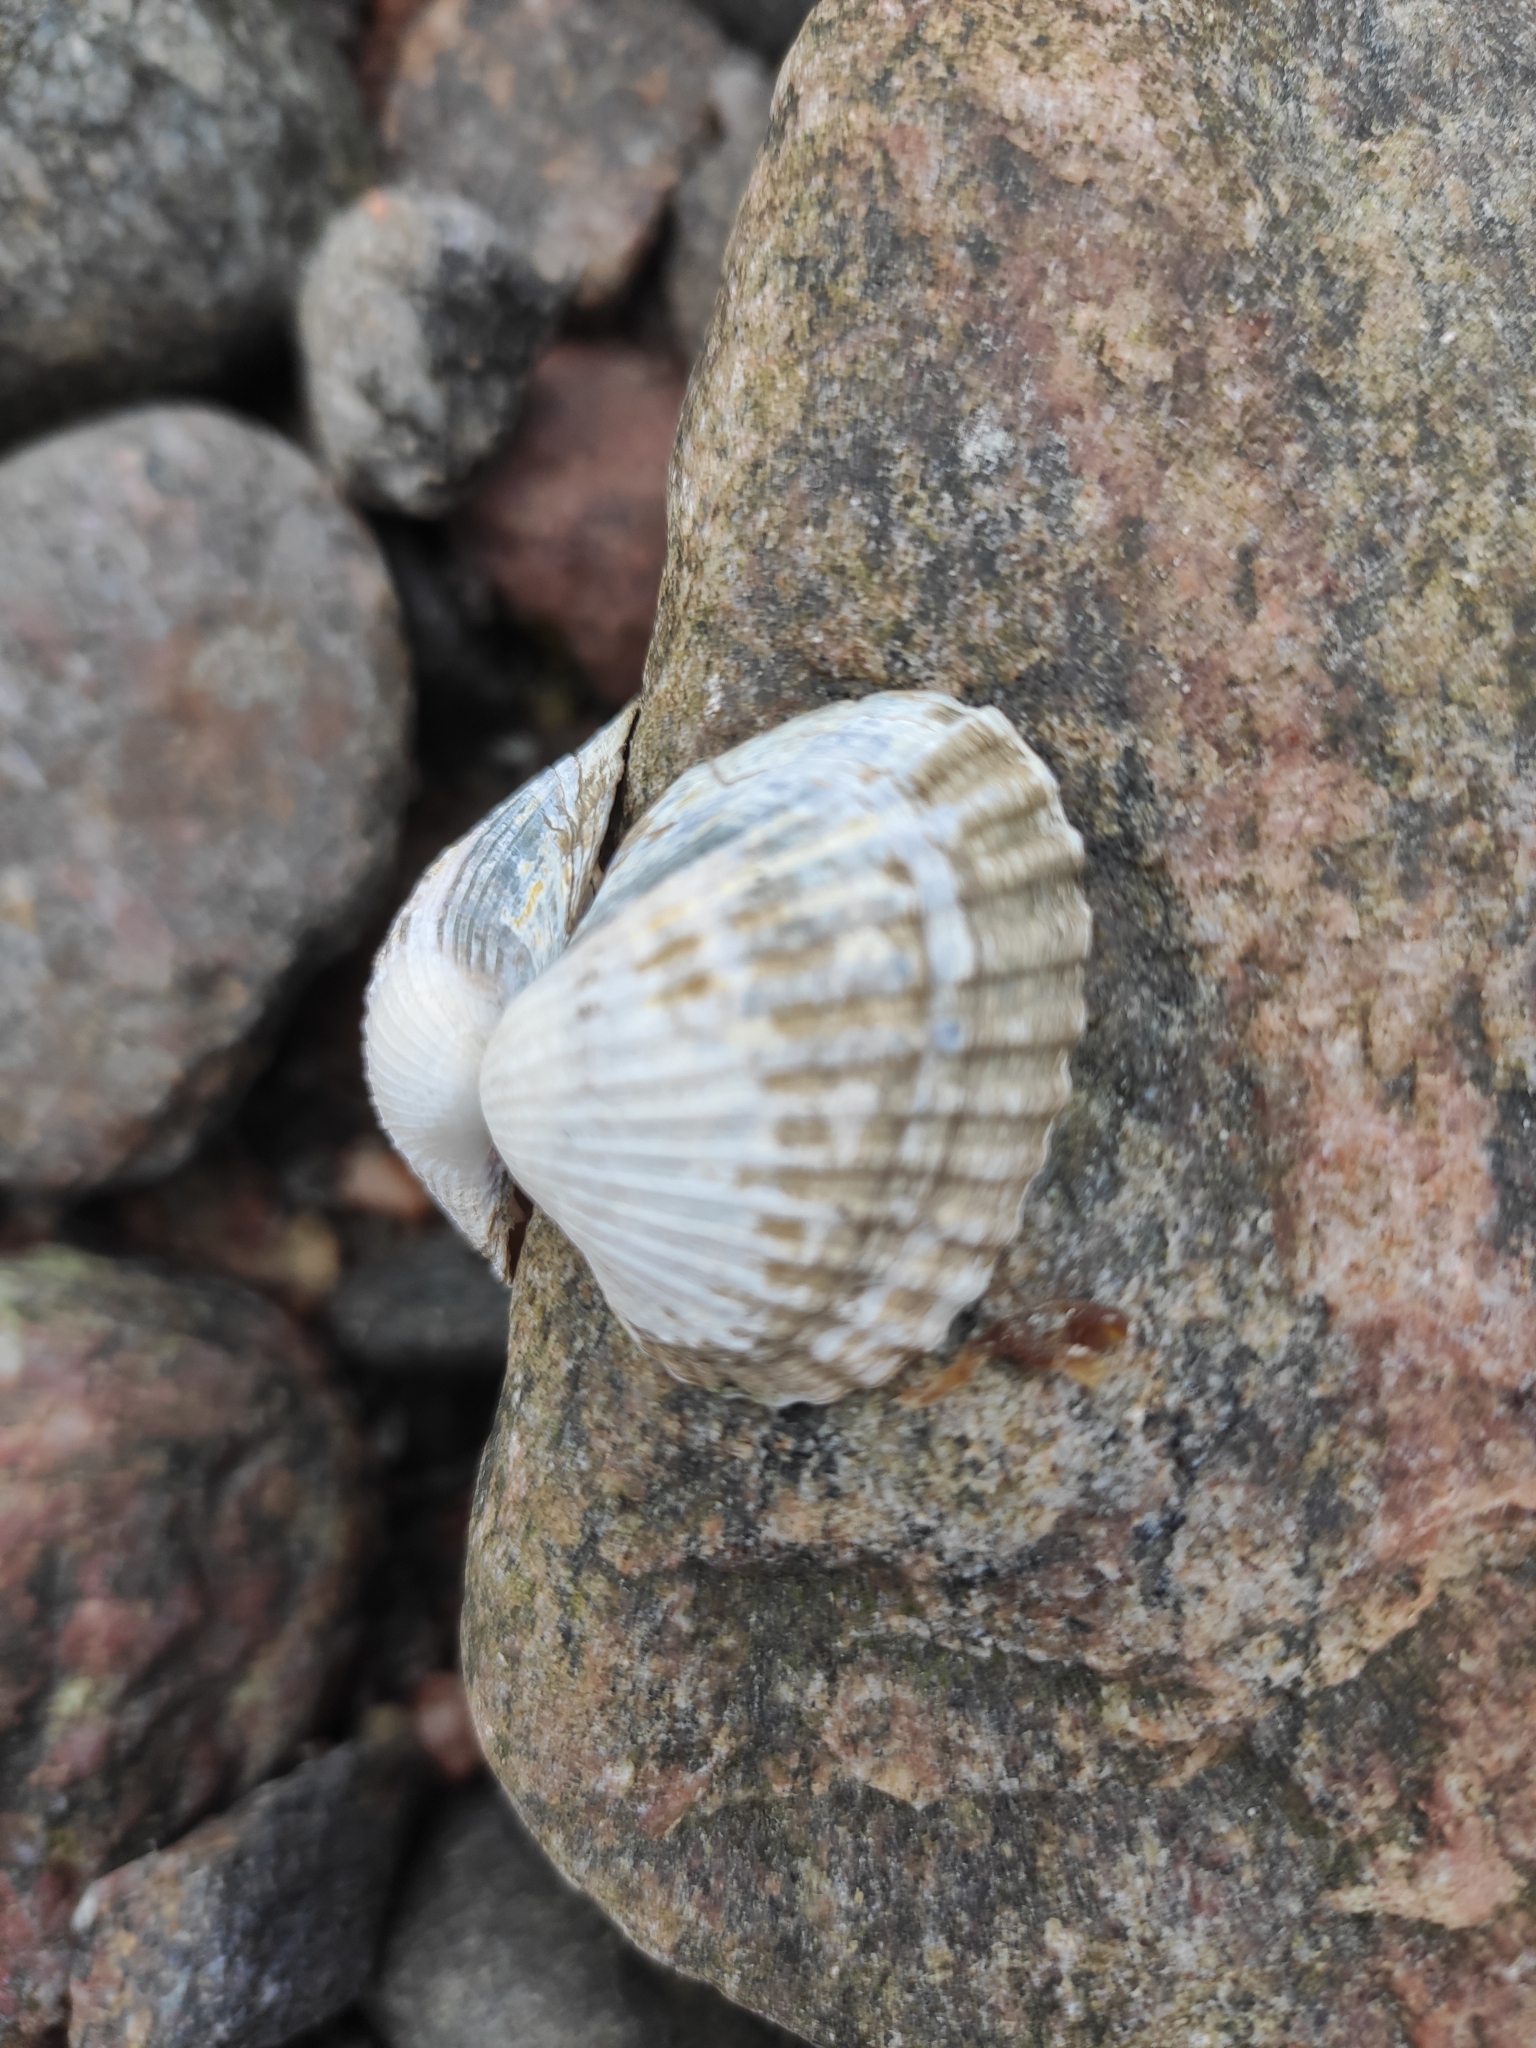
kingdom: Animalia
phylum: Mollusca
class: Bivalvia
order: Cardiida
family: Cardiidae
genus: Cerastoderma
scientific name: Cerastoderma glaucum
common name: Lagoon cockle
